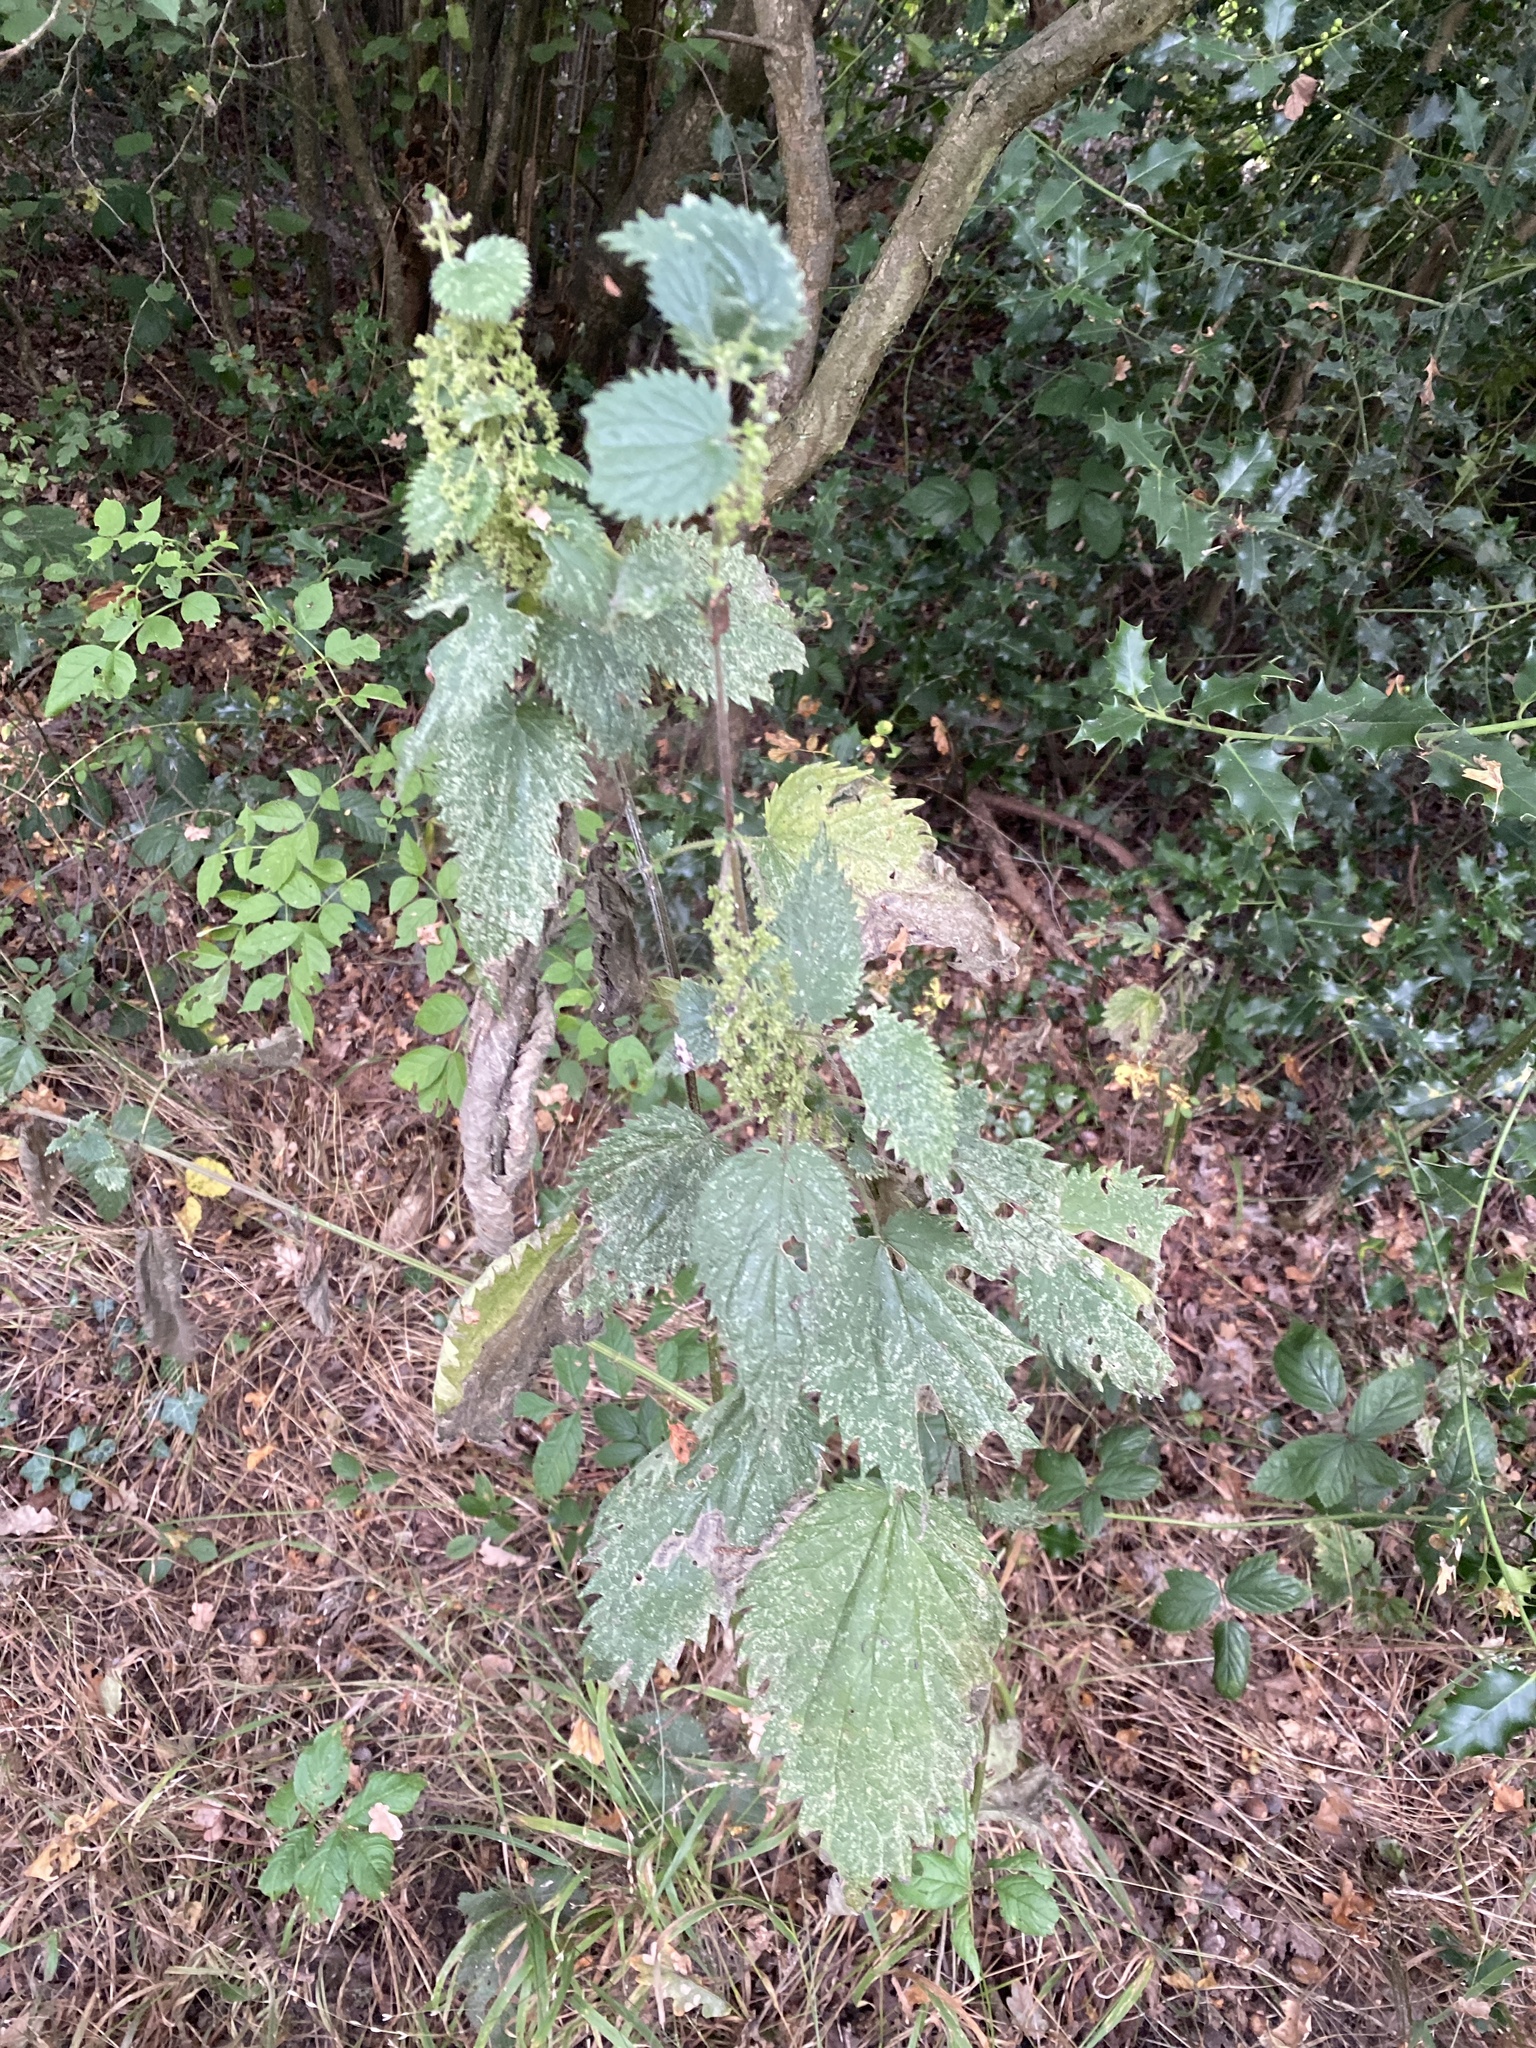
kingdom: Plantae
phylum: Tracheophyta
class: Magnoliopsida
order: Rosales
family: Urticaceae
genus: Urtica
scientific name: Urtica dioica
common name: Common nettle
